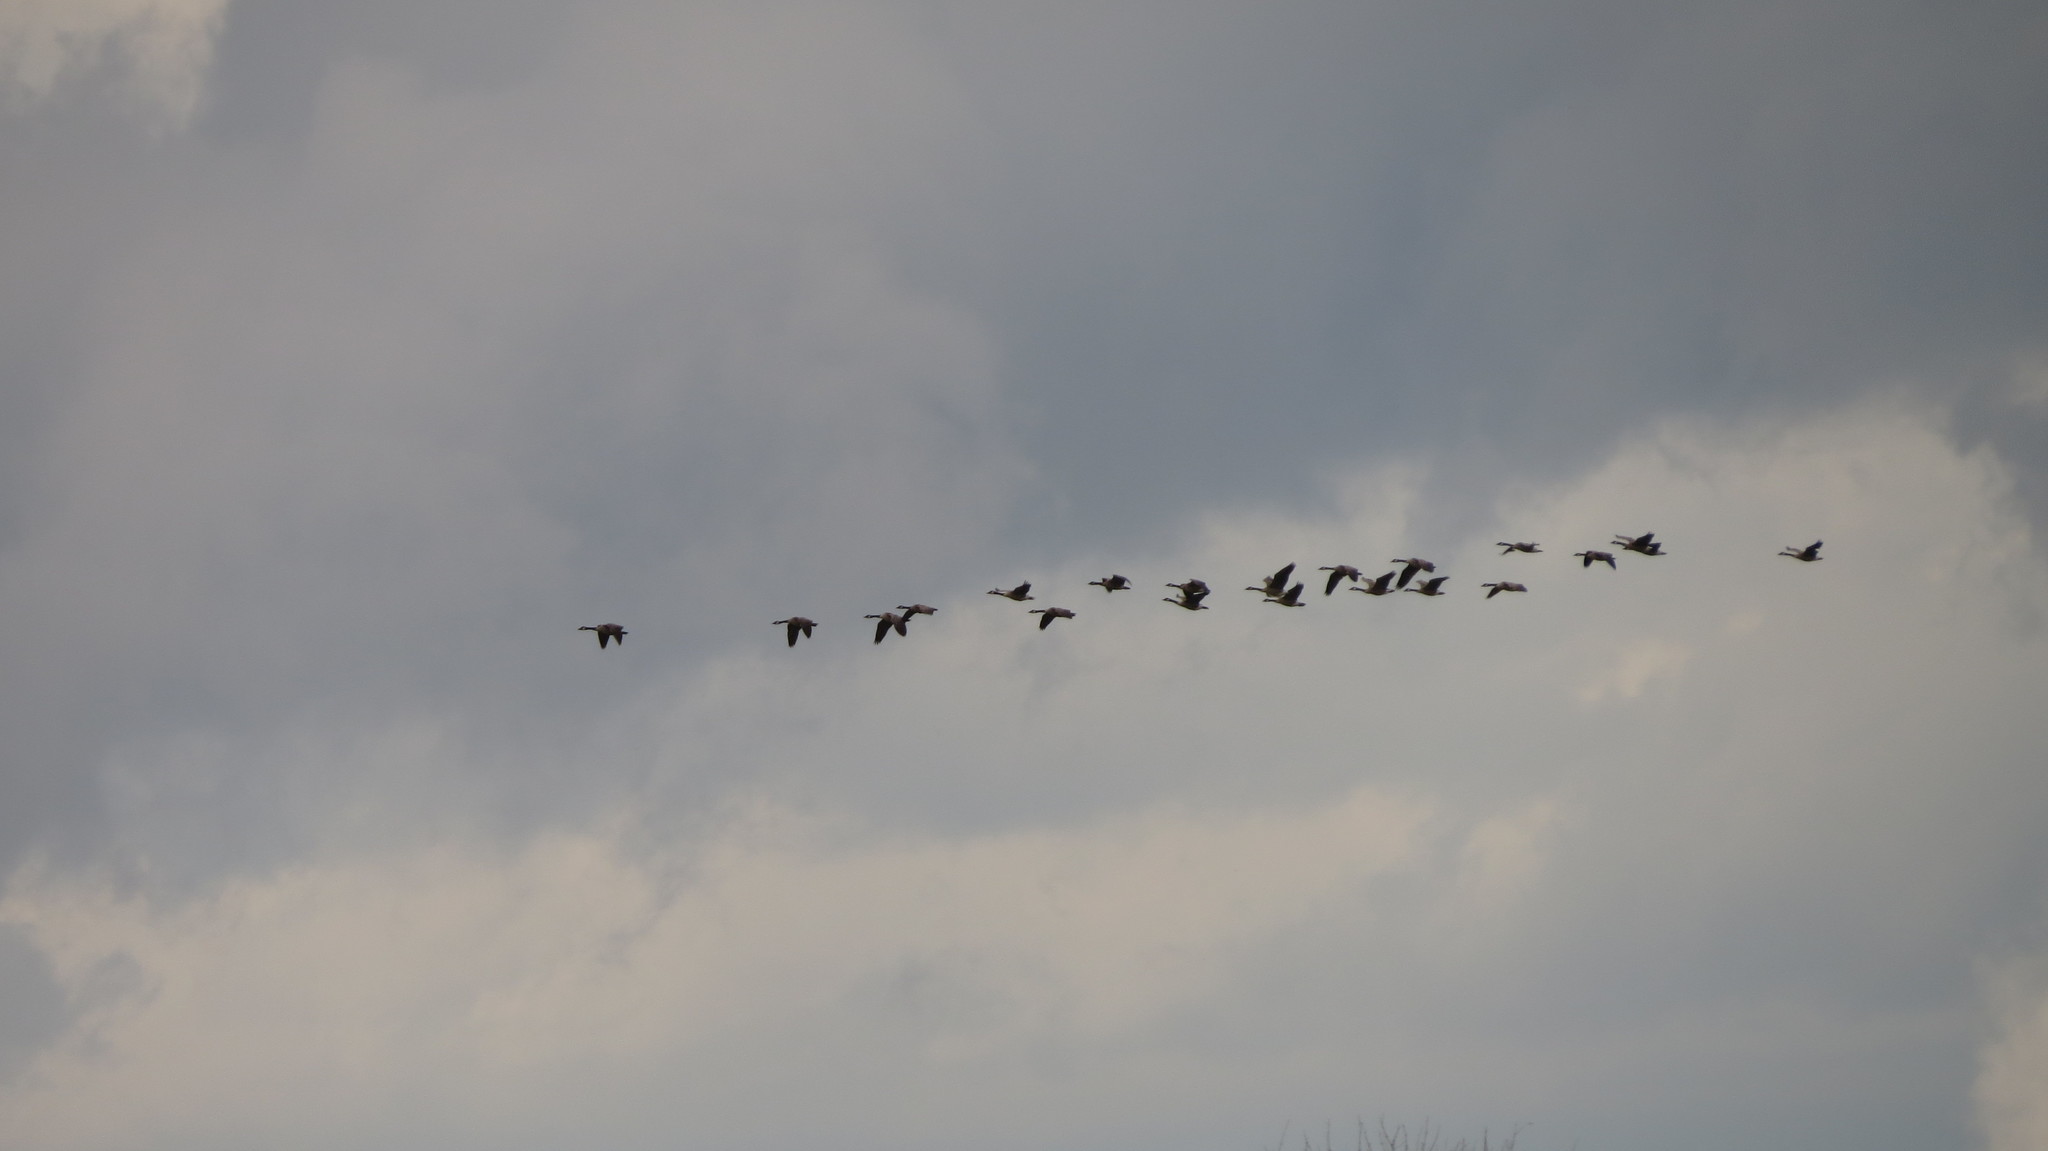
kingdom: Animalia
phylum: Chordata
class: Aves
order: Anseriformes
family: Anatidae
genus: Branta
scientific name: Branta canadensis
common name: Canada goose
